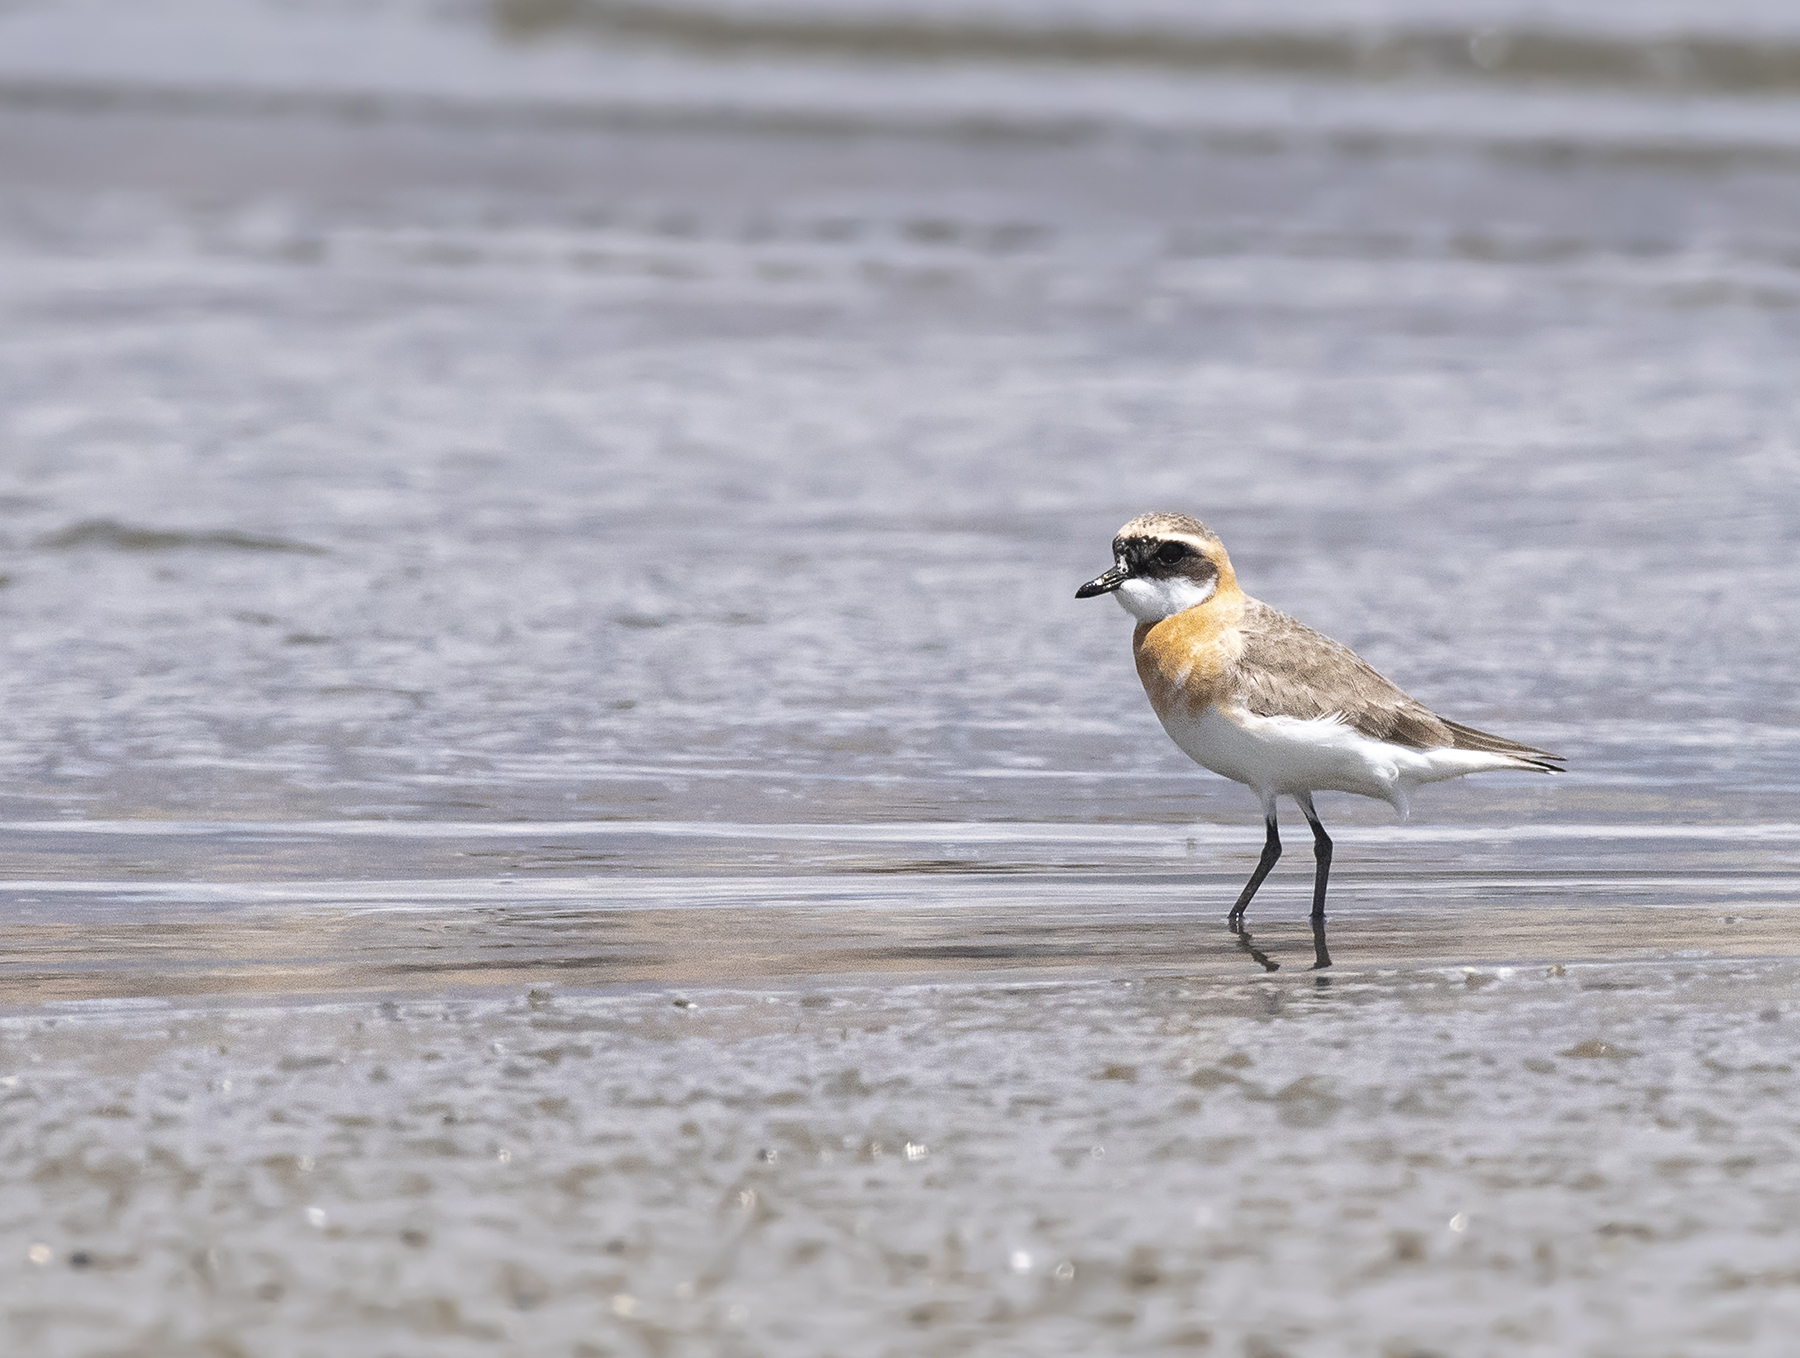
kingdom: Animalia
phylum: Chordata
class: Aves
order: Charadriiformes
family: Charadriidae
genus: Anarhynchus
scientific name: Anarhynchus
